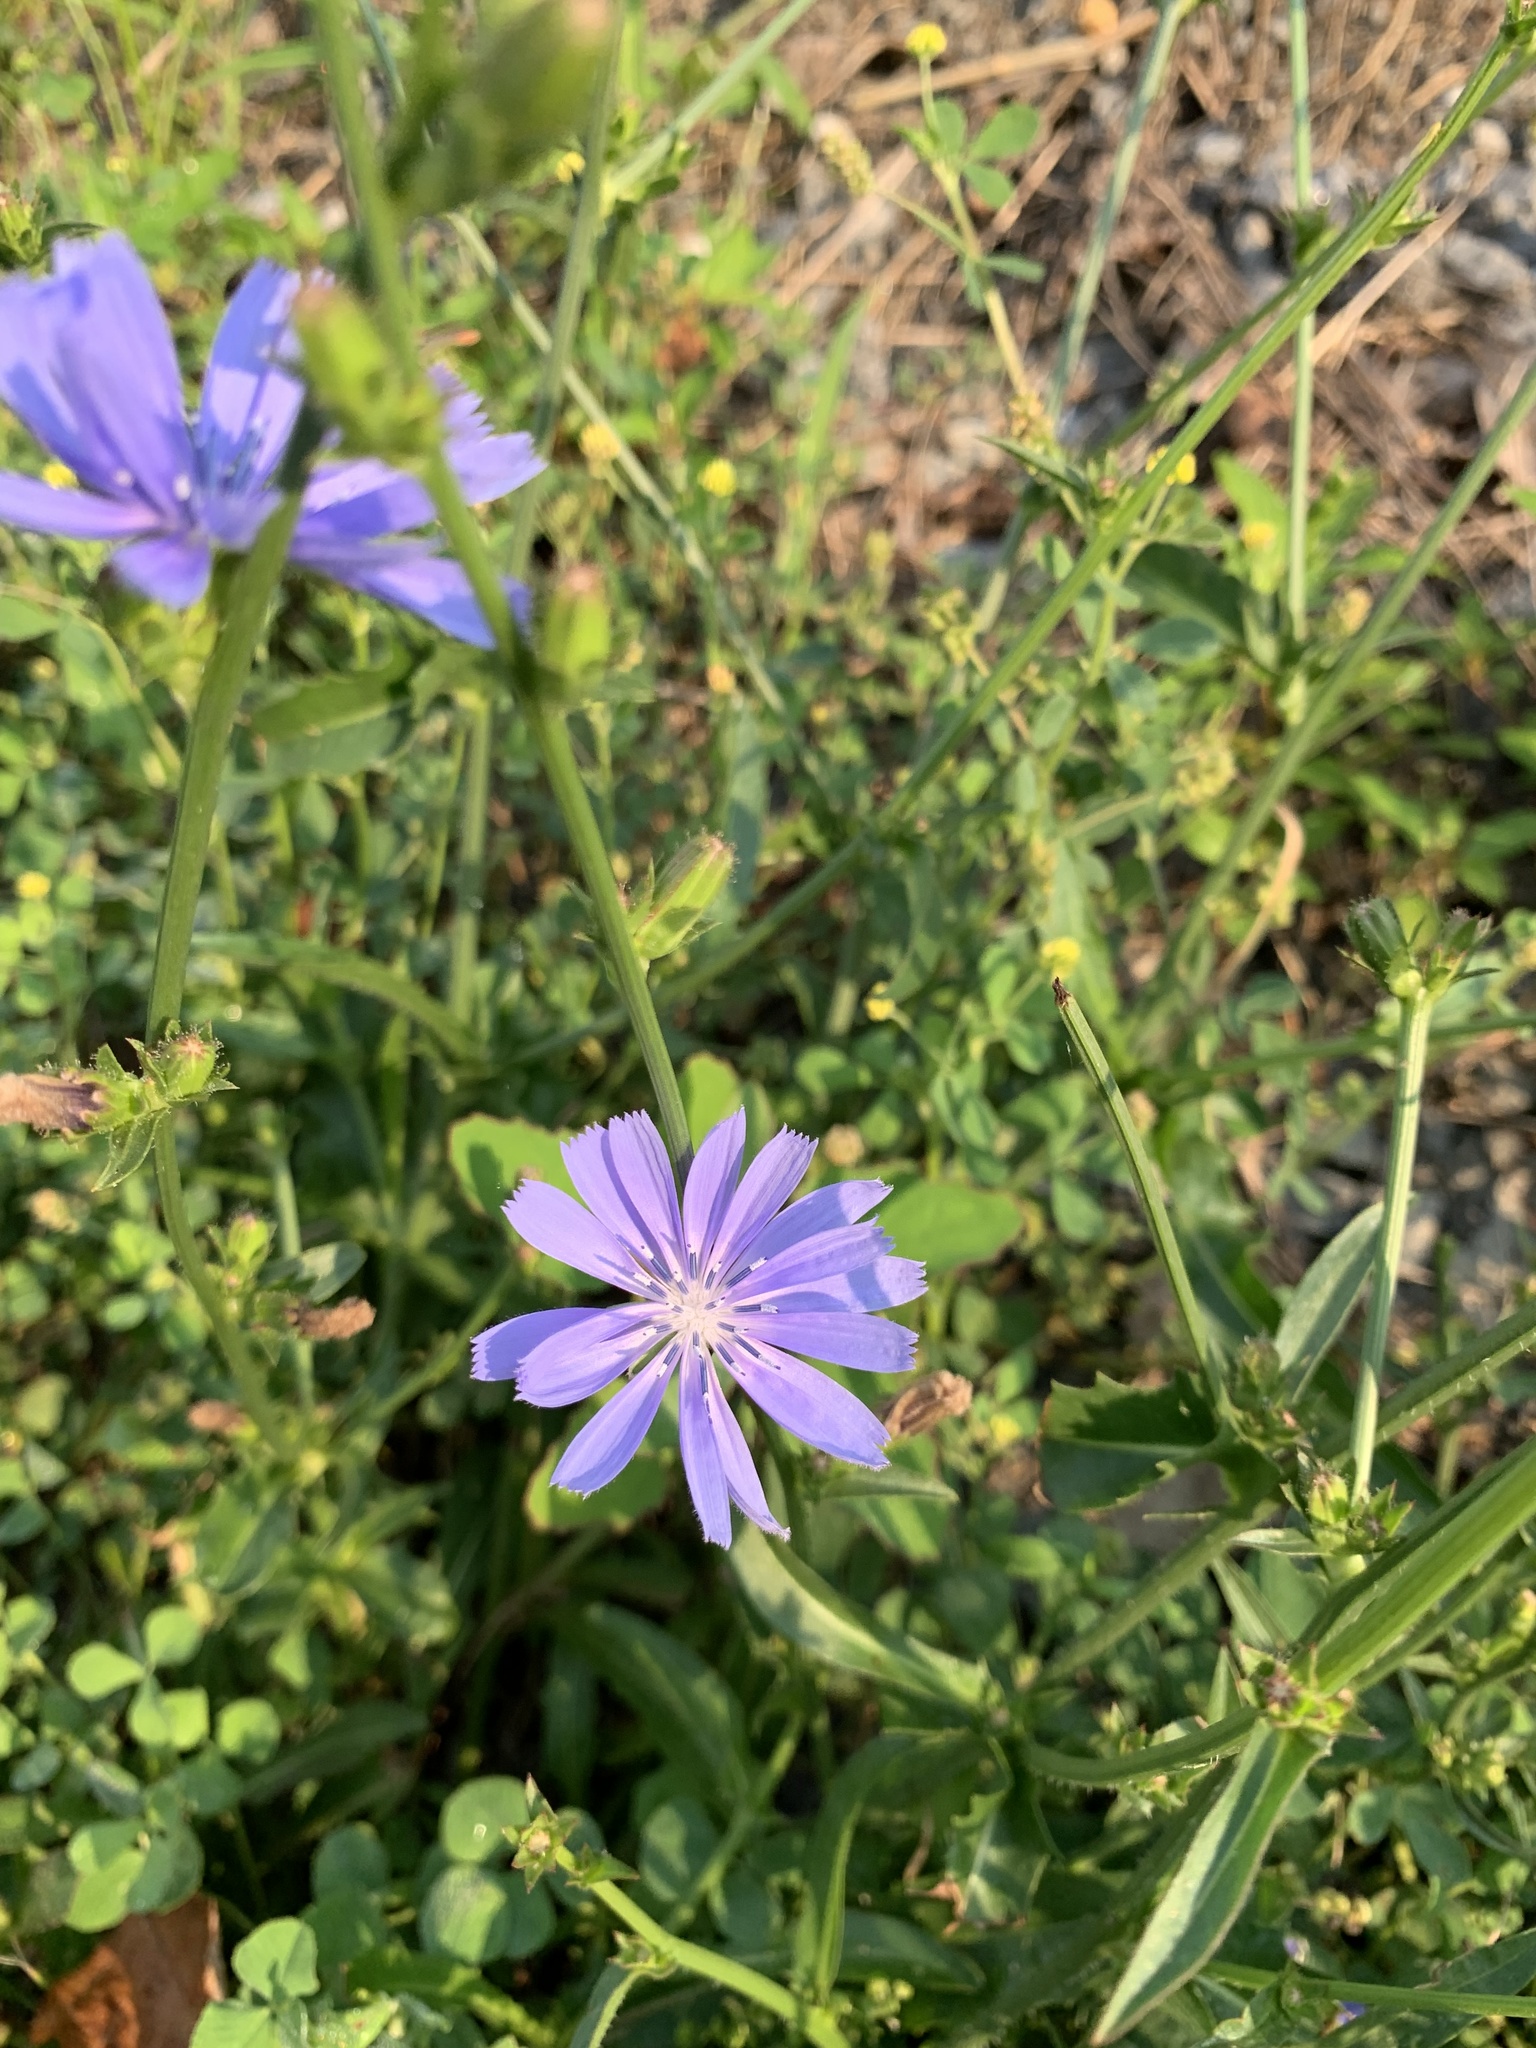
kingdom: Plantae
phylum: Tracheophyta
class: Magnoliopsida
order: Asterales
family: Asteraceae
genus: Cichorium
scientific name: Cichorium intybus
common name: Chicory
